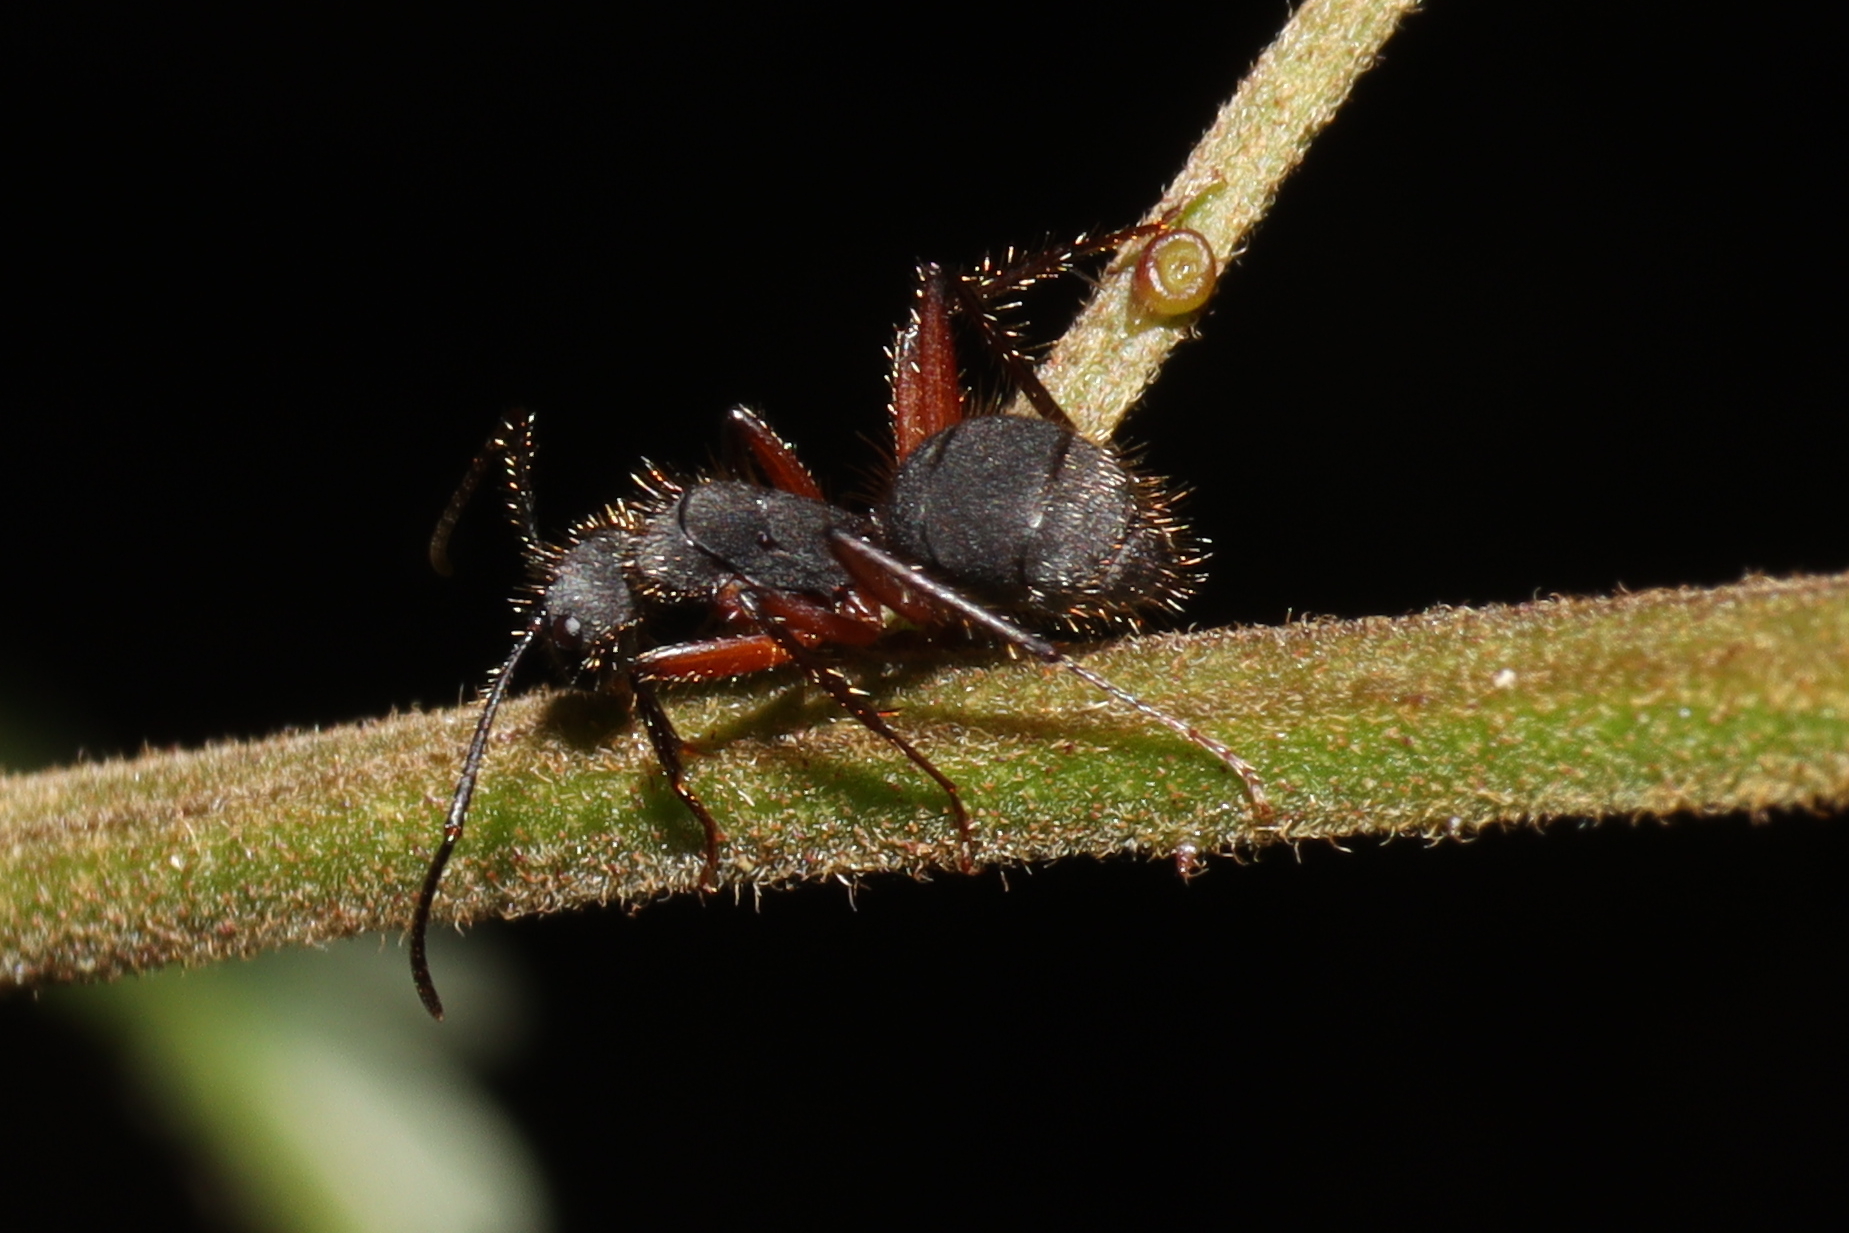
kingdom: Animalia
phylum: Arthropoda
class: Insecta
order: Hymenoptera
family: Formicidae
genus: Camponotus
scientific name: Camponotus rufipes
